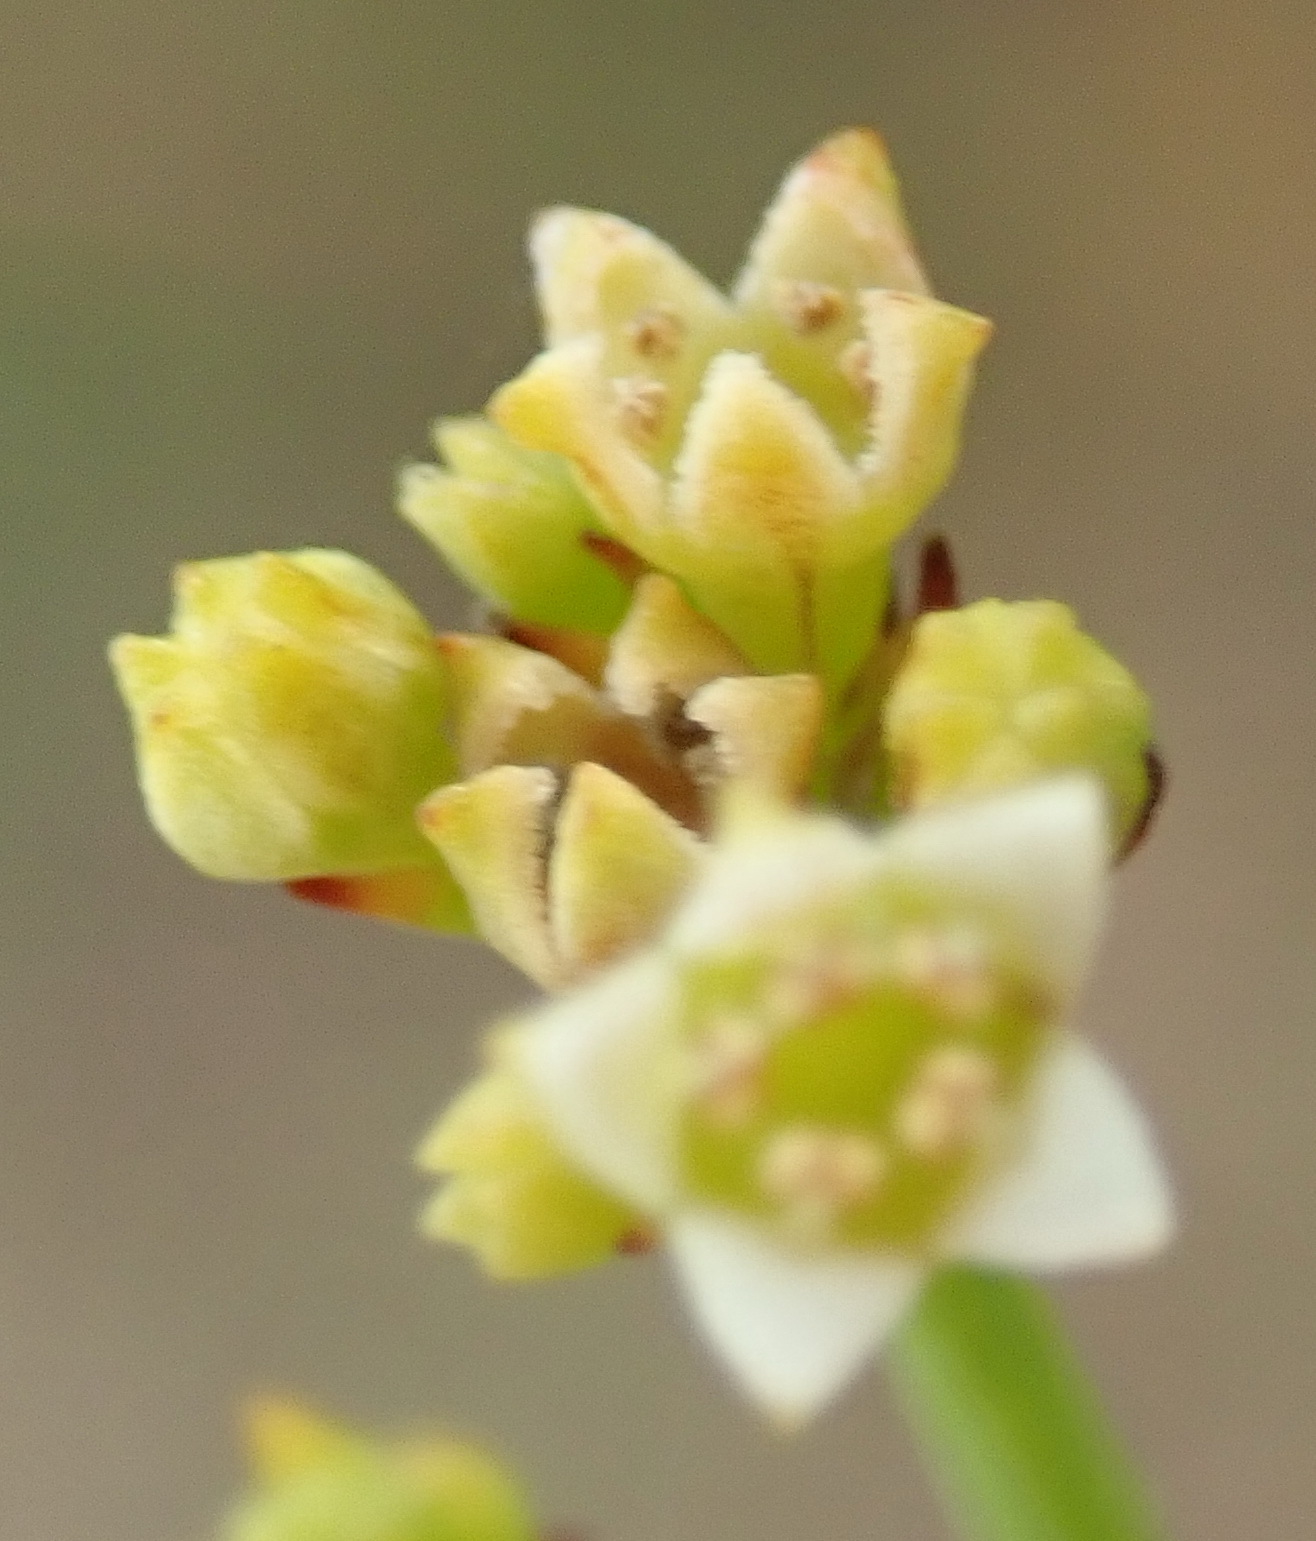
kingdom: Plantae
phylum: Tracheophyta
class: Magnoliopsida
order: Santalales
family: Thesiaceae
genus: Thesium
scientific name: Thesium virgatum
